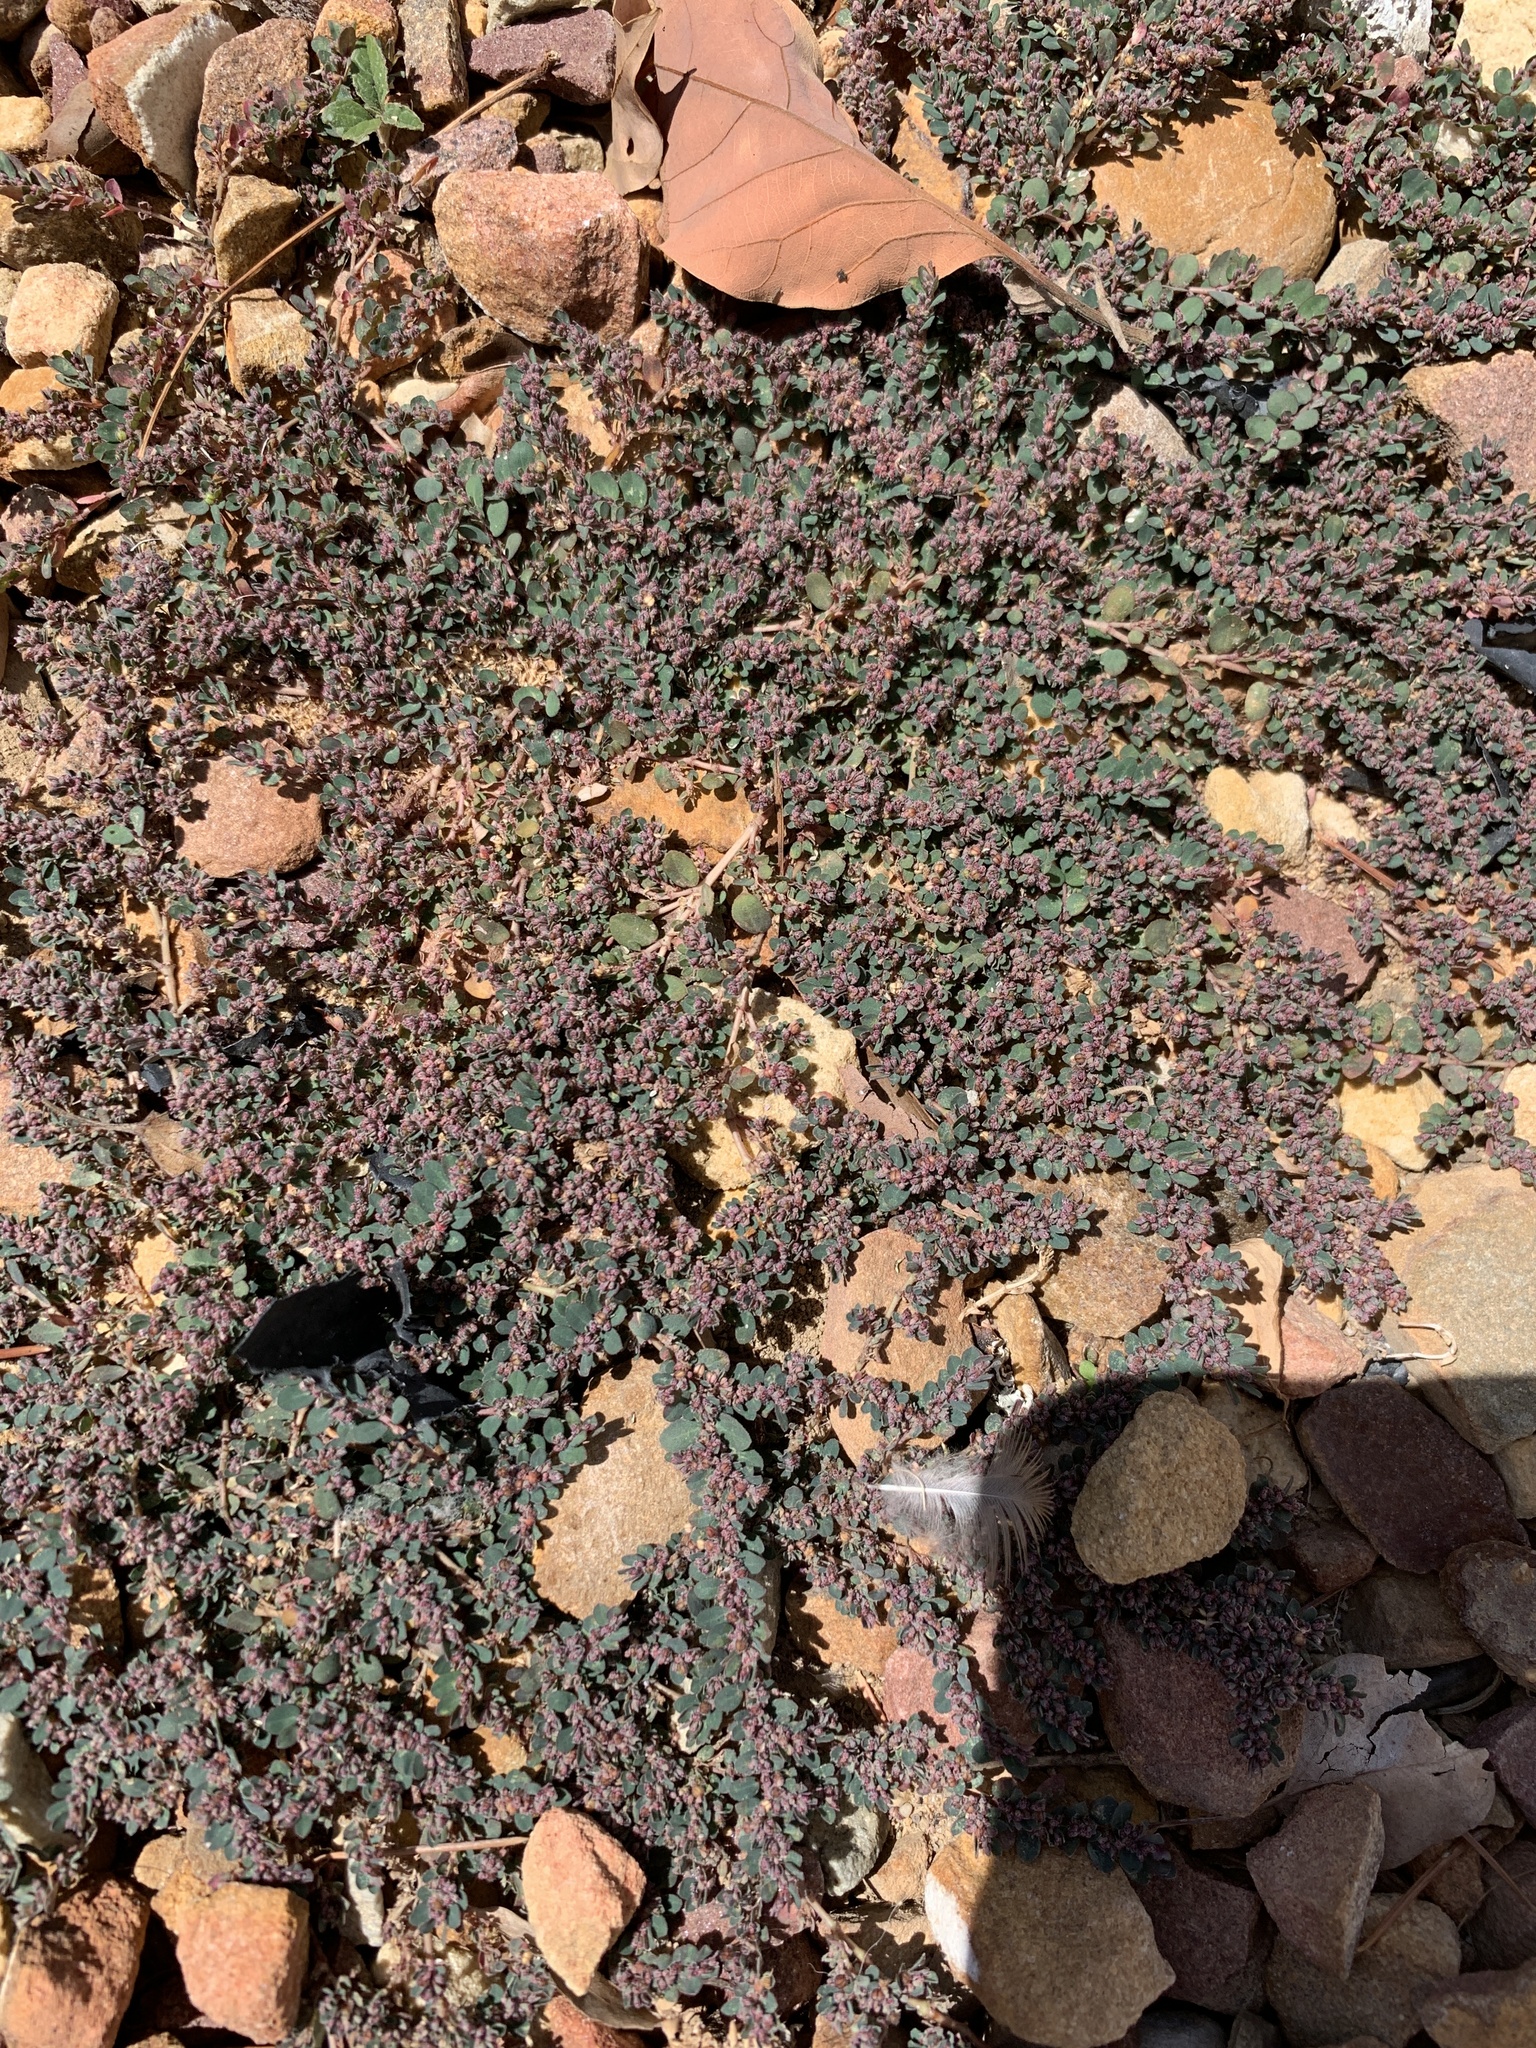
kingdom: Plantae
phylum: Tracheophyta
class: Magnoliopsida
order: Malpighiales
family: Euphorbiaceae
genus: Euphorbia
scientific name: Euphorbia prostrata
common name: Prostrate sandmat
